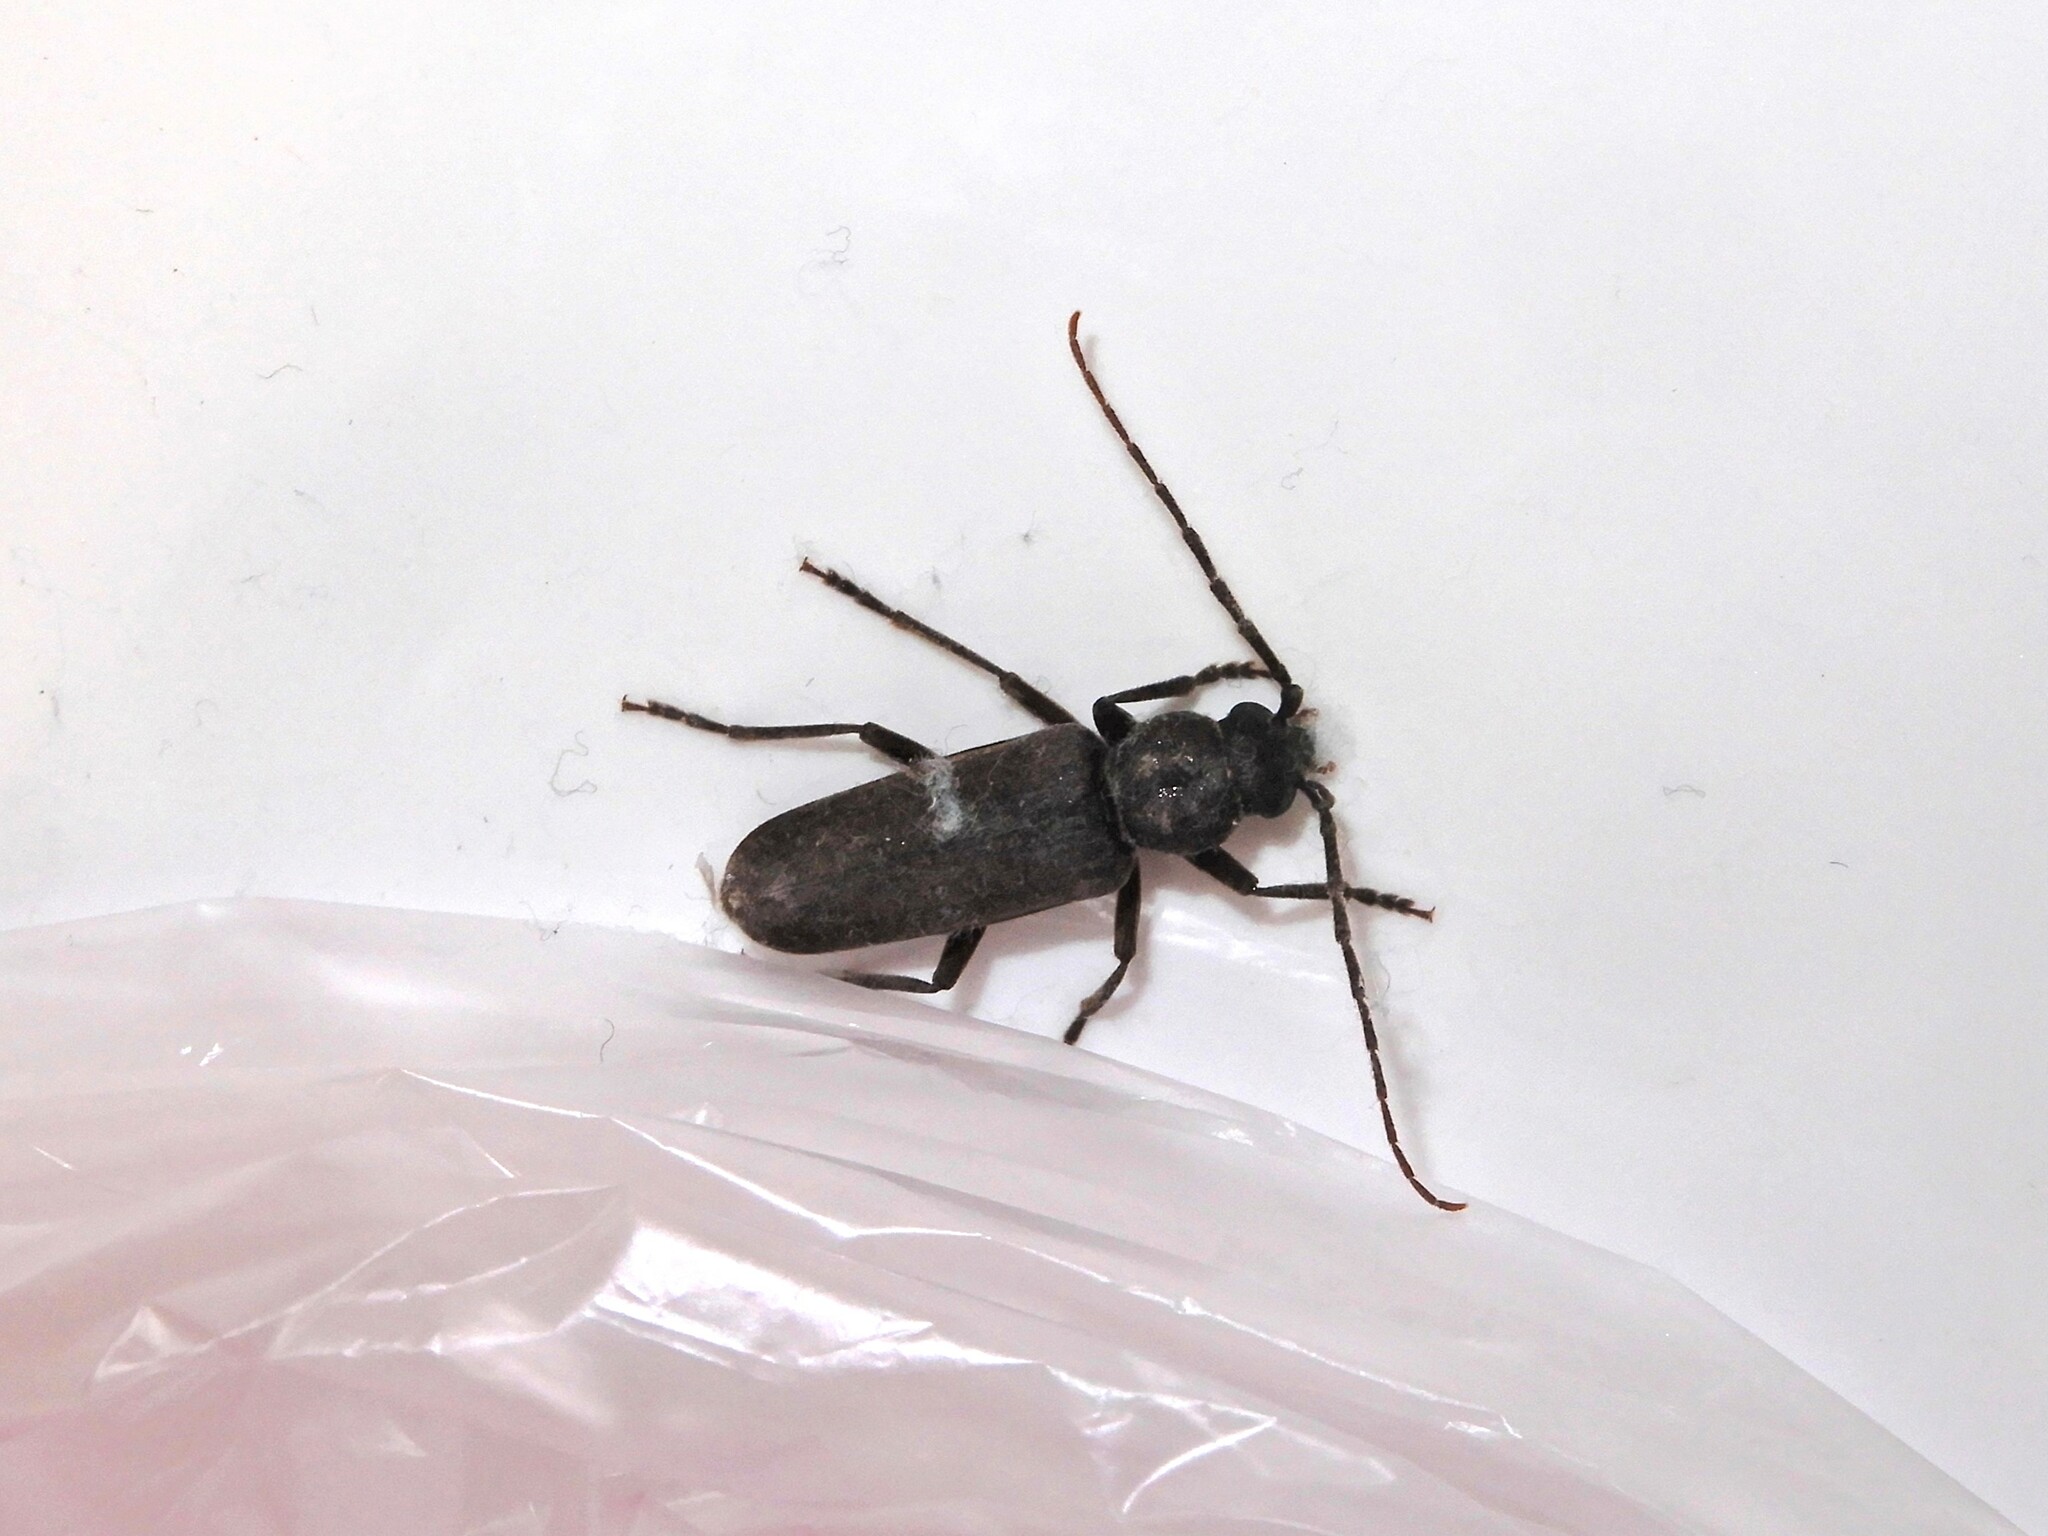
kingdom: Animalia
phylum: Arthropoda
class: Insecta
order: Coleoptera
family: Cerambycidae
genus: Arhopalus
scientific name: Arhopalus ferus
